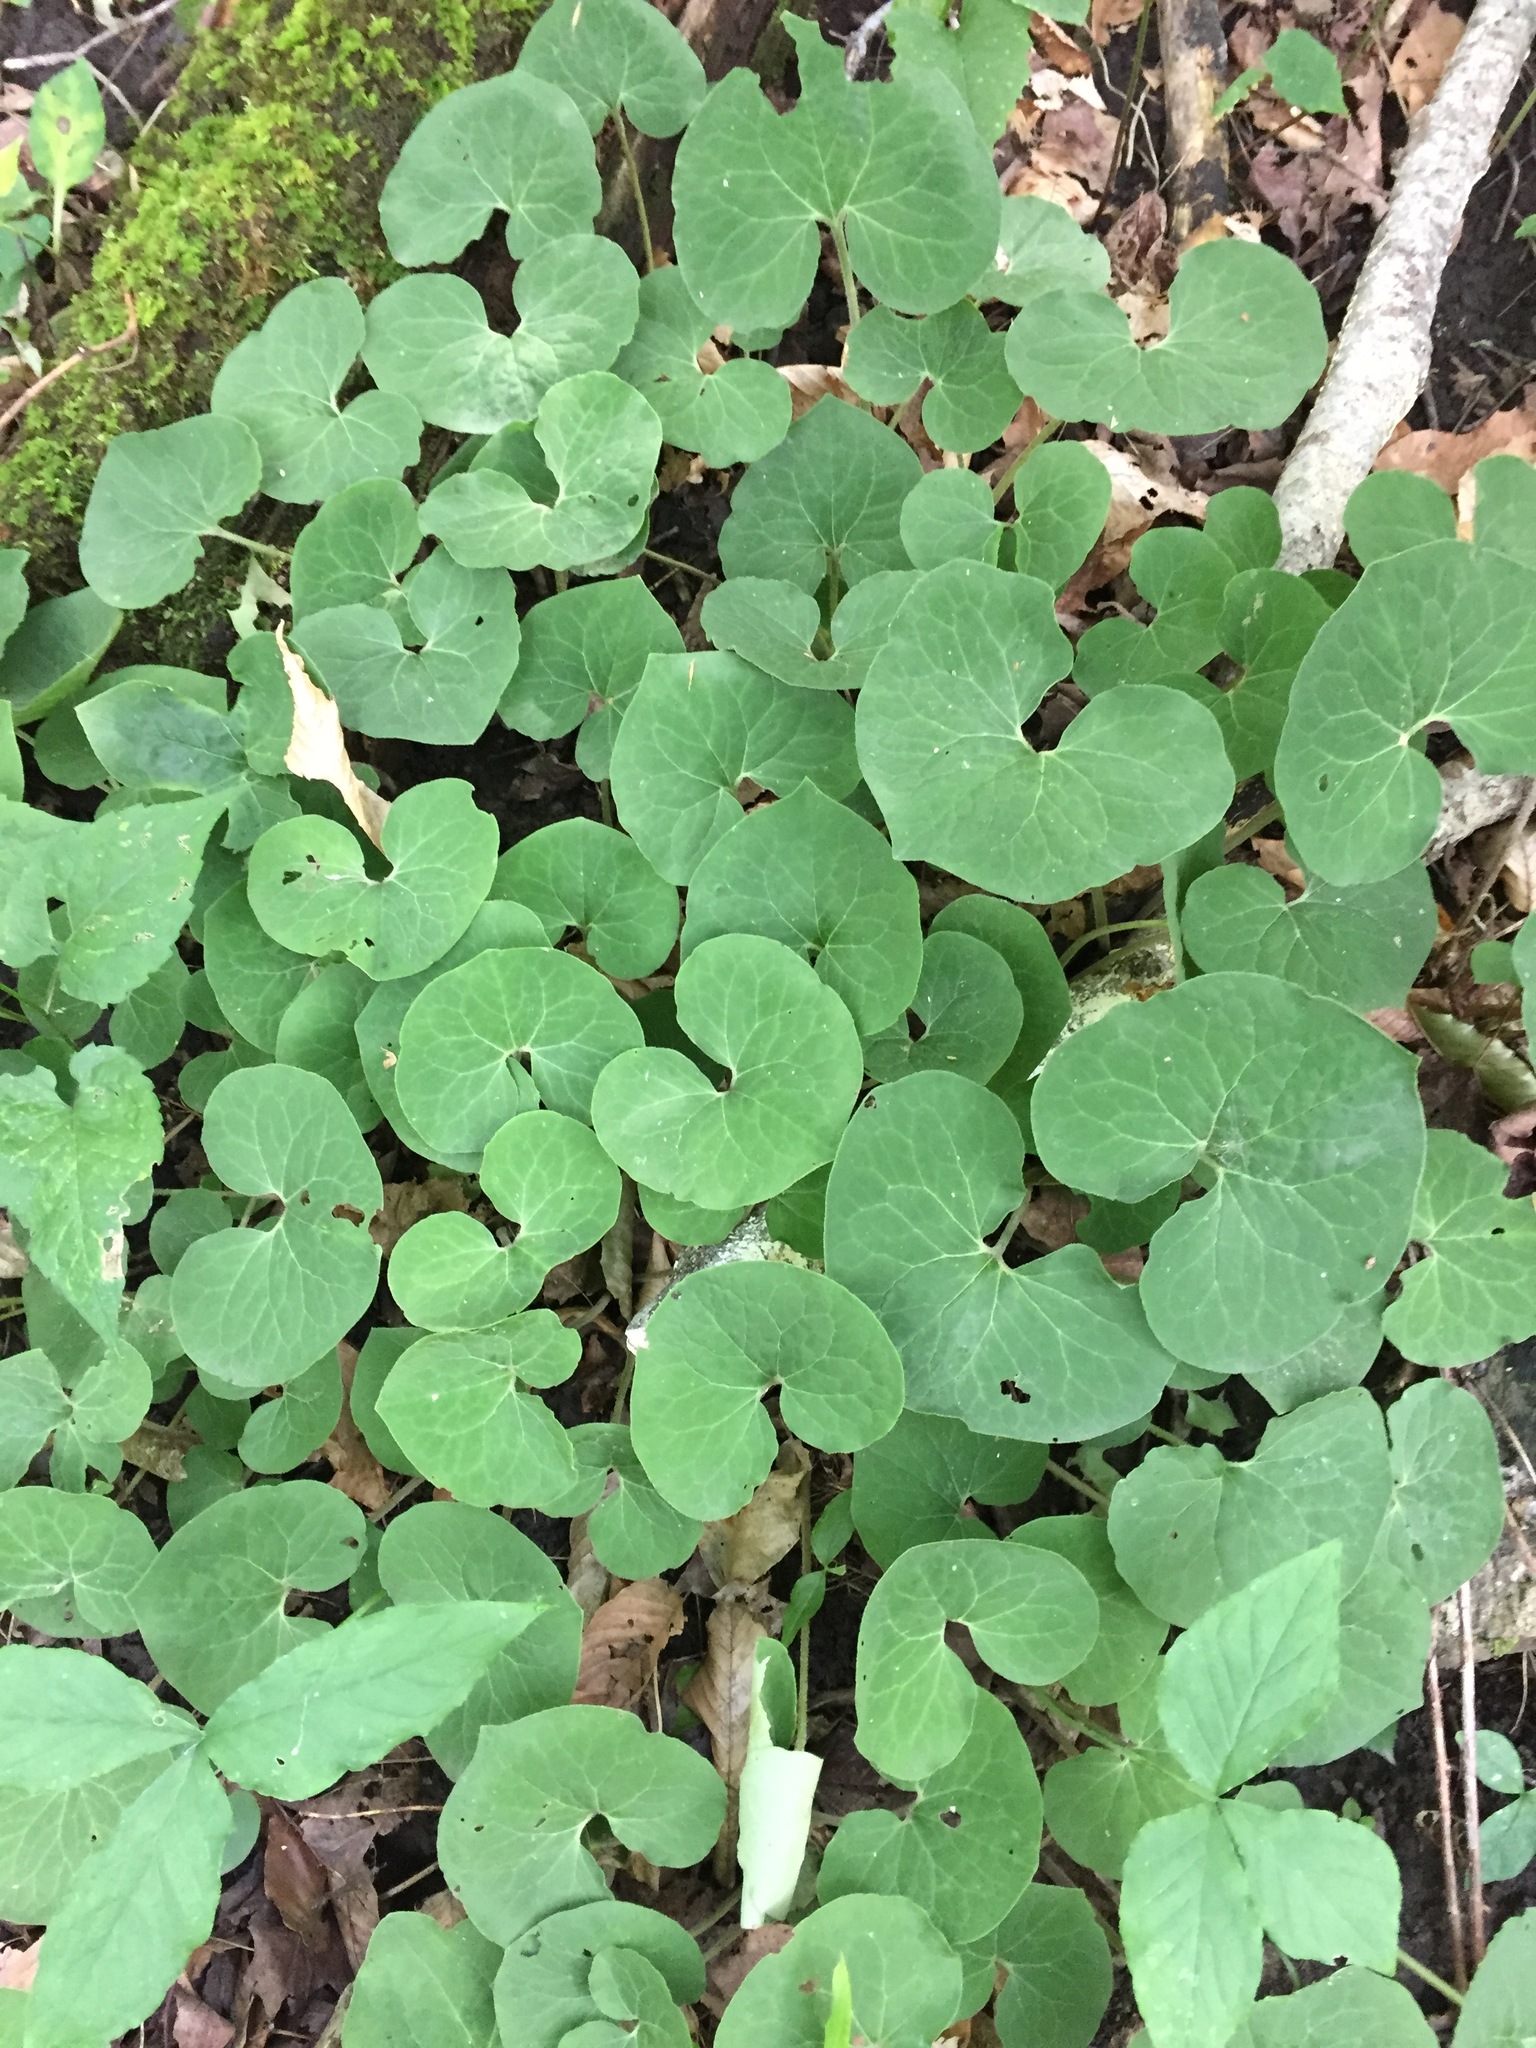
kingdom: Plantae
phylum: Tracheophyta
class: Magnoliopsida
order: Piperales
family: Aristolochiaceae
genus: Asarum
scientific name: Asarum canadense
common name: Wild ginger
